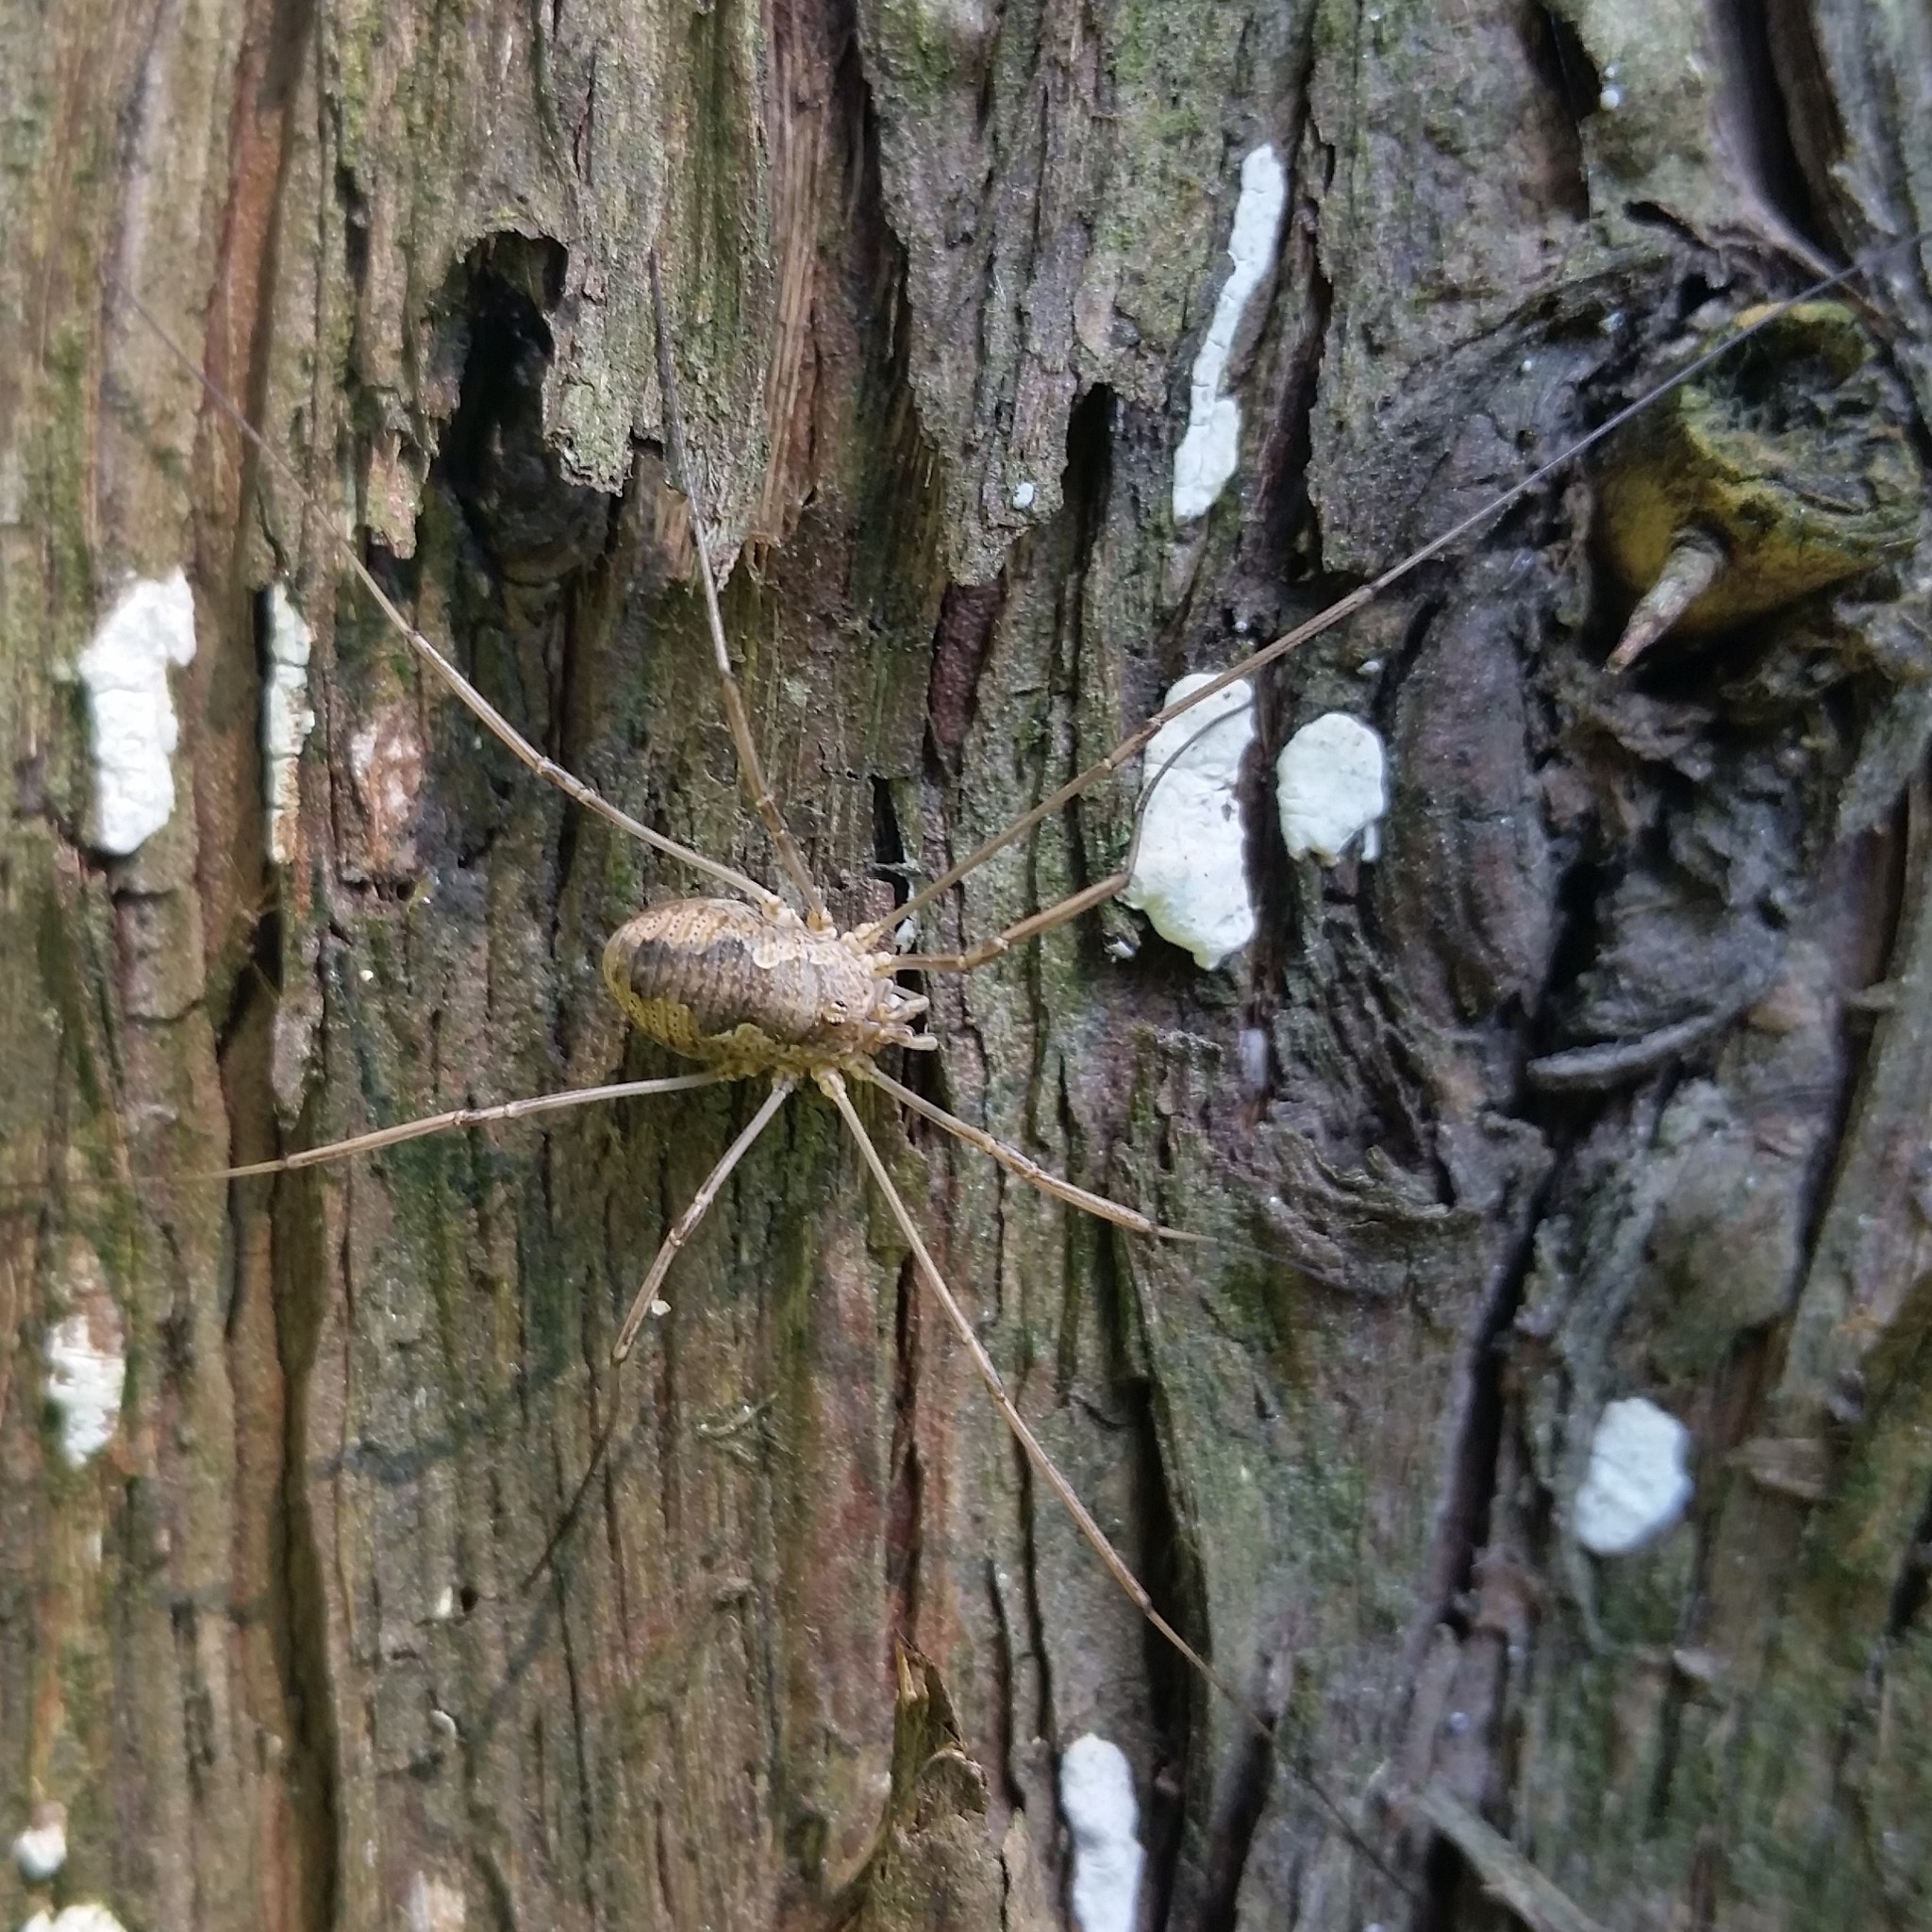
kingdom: Animalia
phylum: Arthropoda
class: Arachnida
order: Opiliones
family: Phalangiidae
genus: Phalangium
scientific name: Phalangium opilio
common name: Daddy longleg
